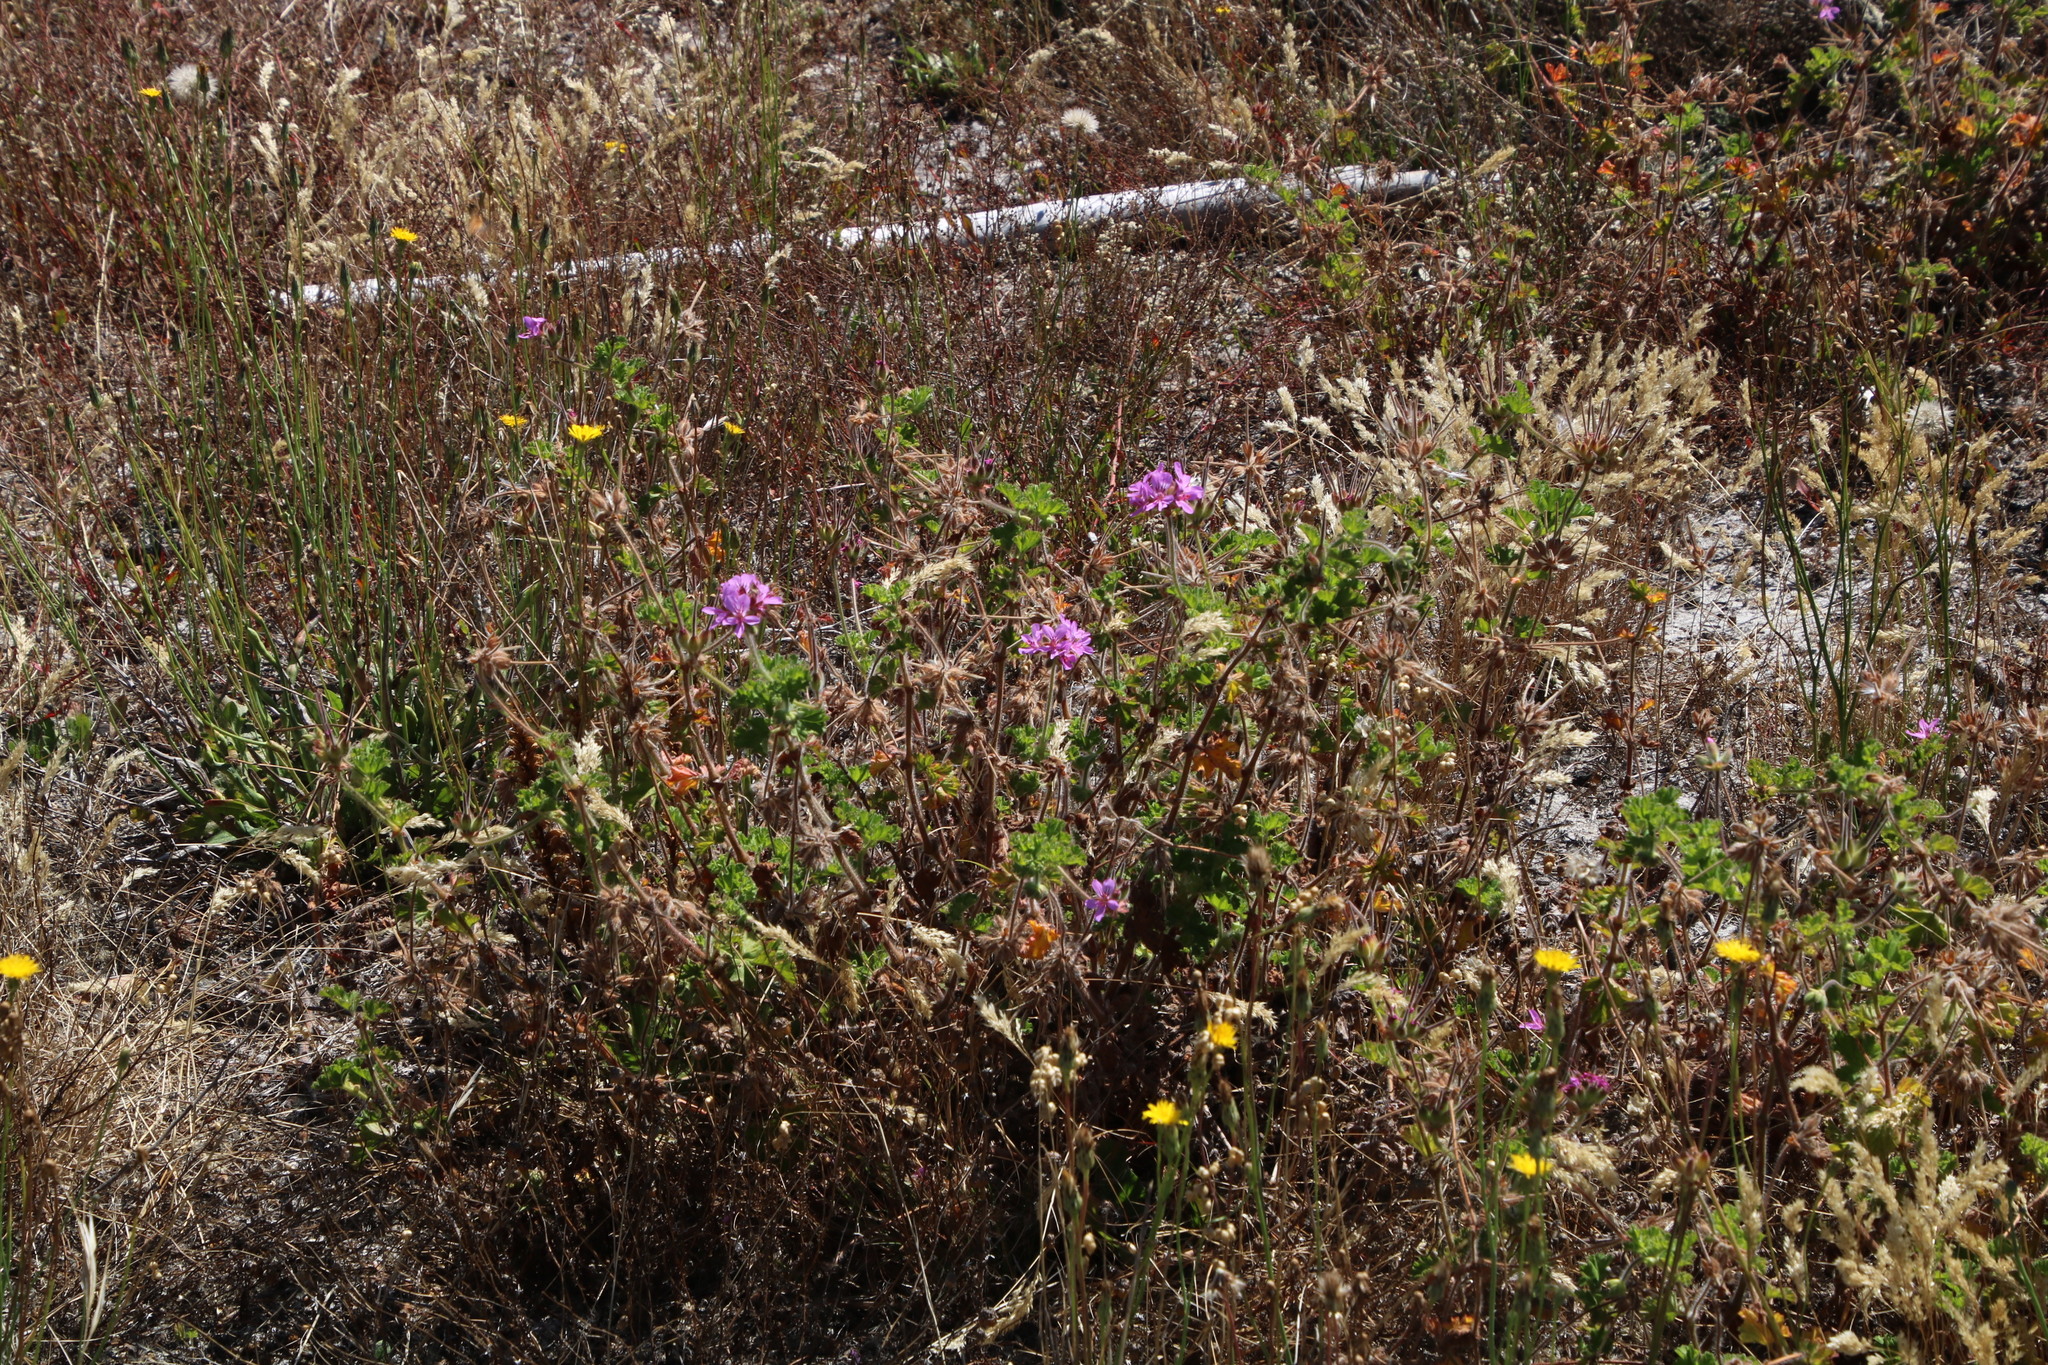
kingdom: Plantae
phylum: Tracheophyta
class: Magnoliopsida
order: Geraniales
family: Geraniaceae
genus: Pelargonium
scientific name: Pelargonium capitatum
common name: Rose scented geranium
